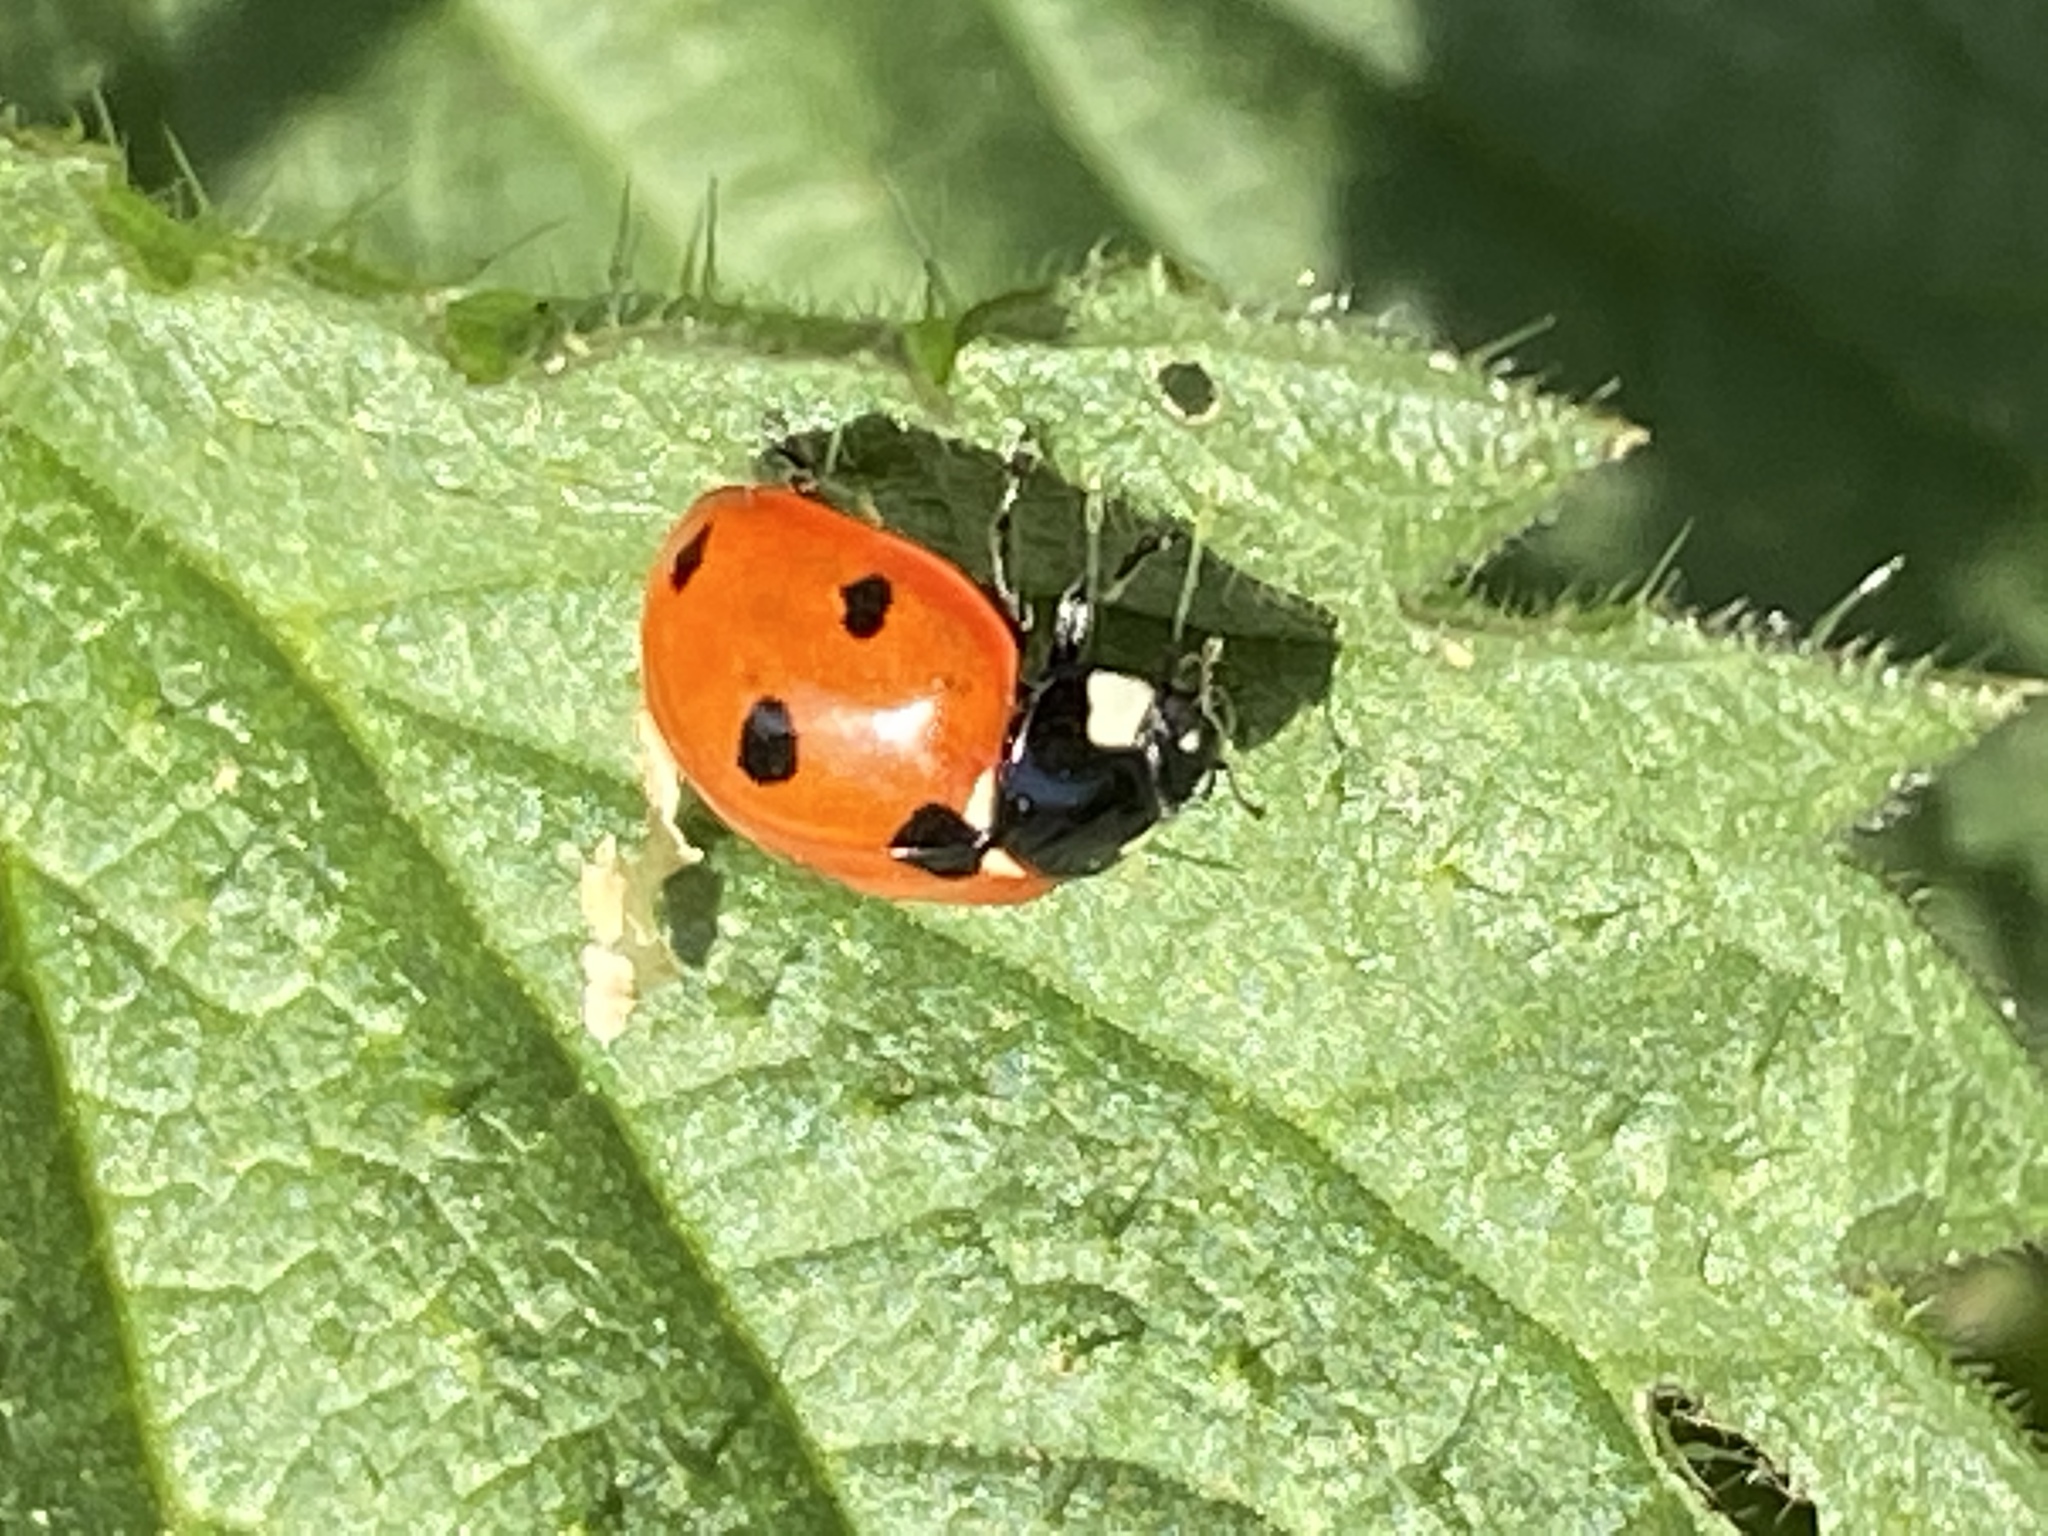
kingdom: Animalia
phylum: Arthropoda
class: Insecta
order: Coleoptera
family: Coccinellidae
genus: Coccinella
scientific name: Coccinella septempunctata
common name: Sevenspotted lady beetle
